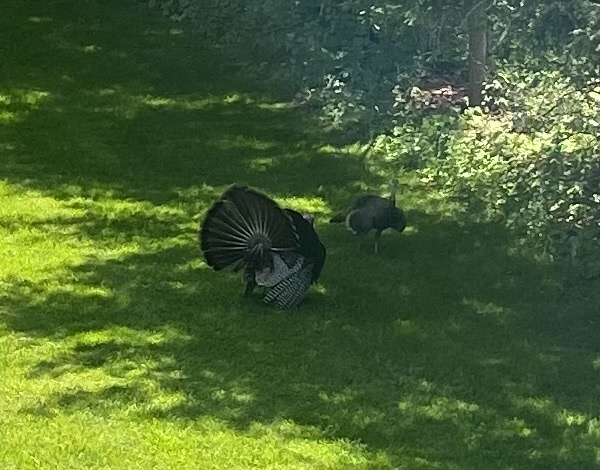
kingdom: Animalia
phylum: Chordata
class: Aves
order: Galliformes
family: Phasianidae
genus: Meleagris
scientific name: Meleagris gallopavo
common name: Wild turkey
